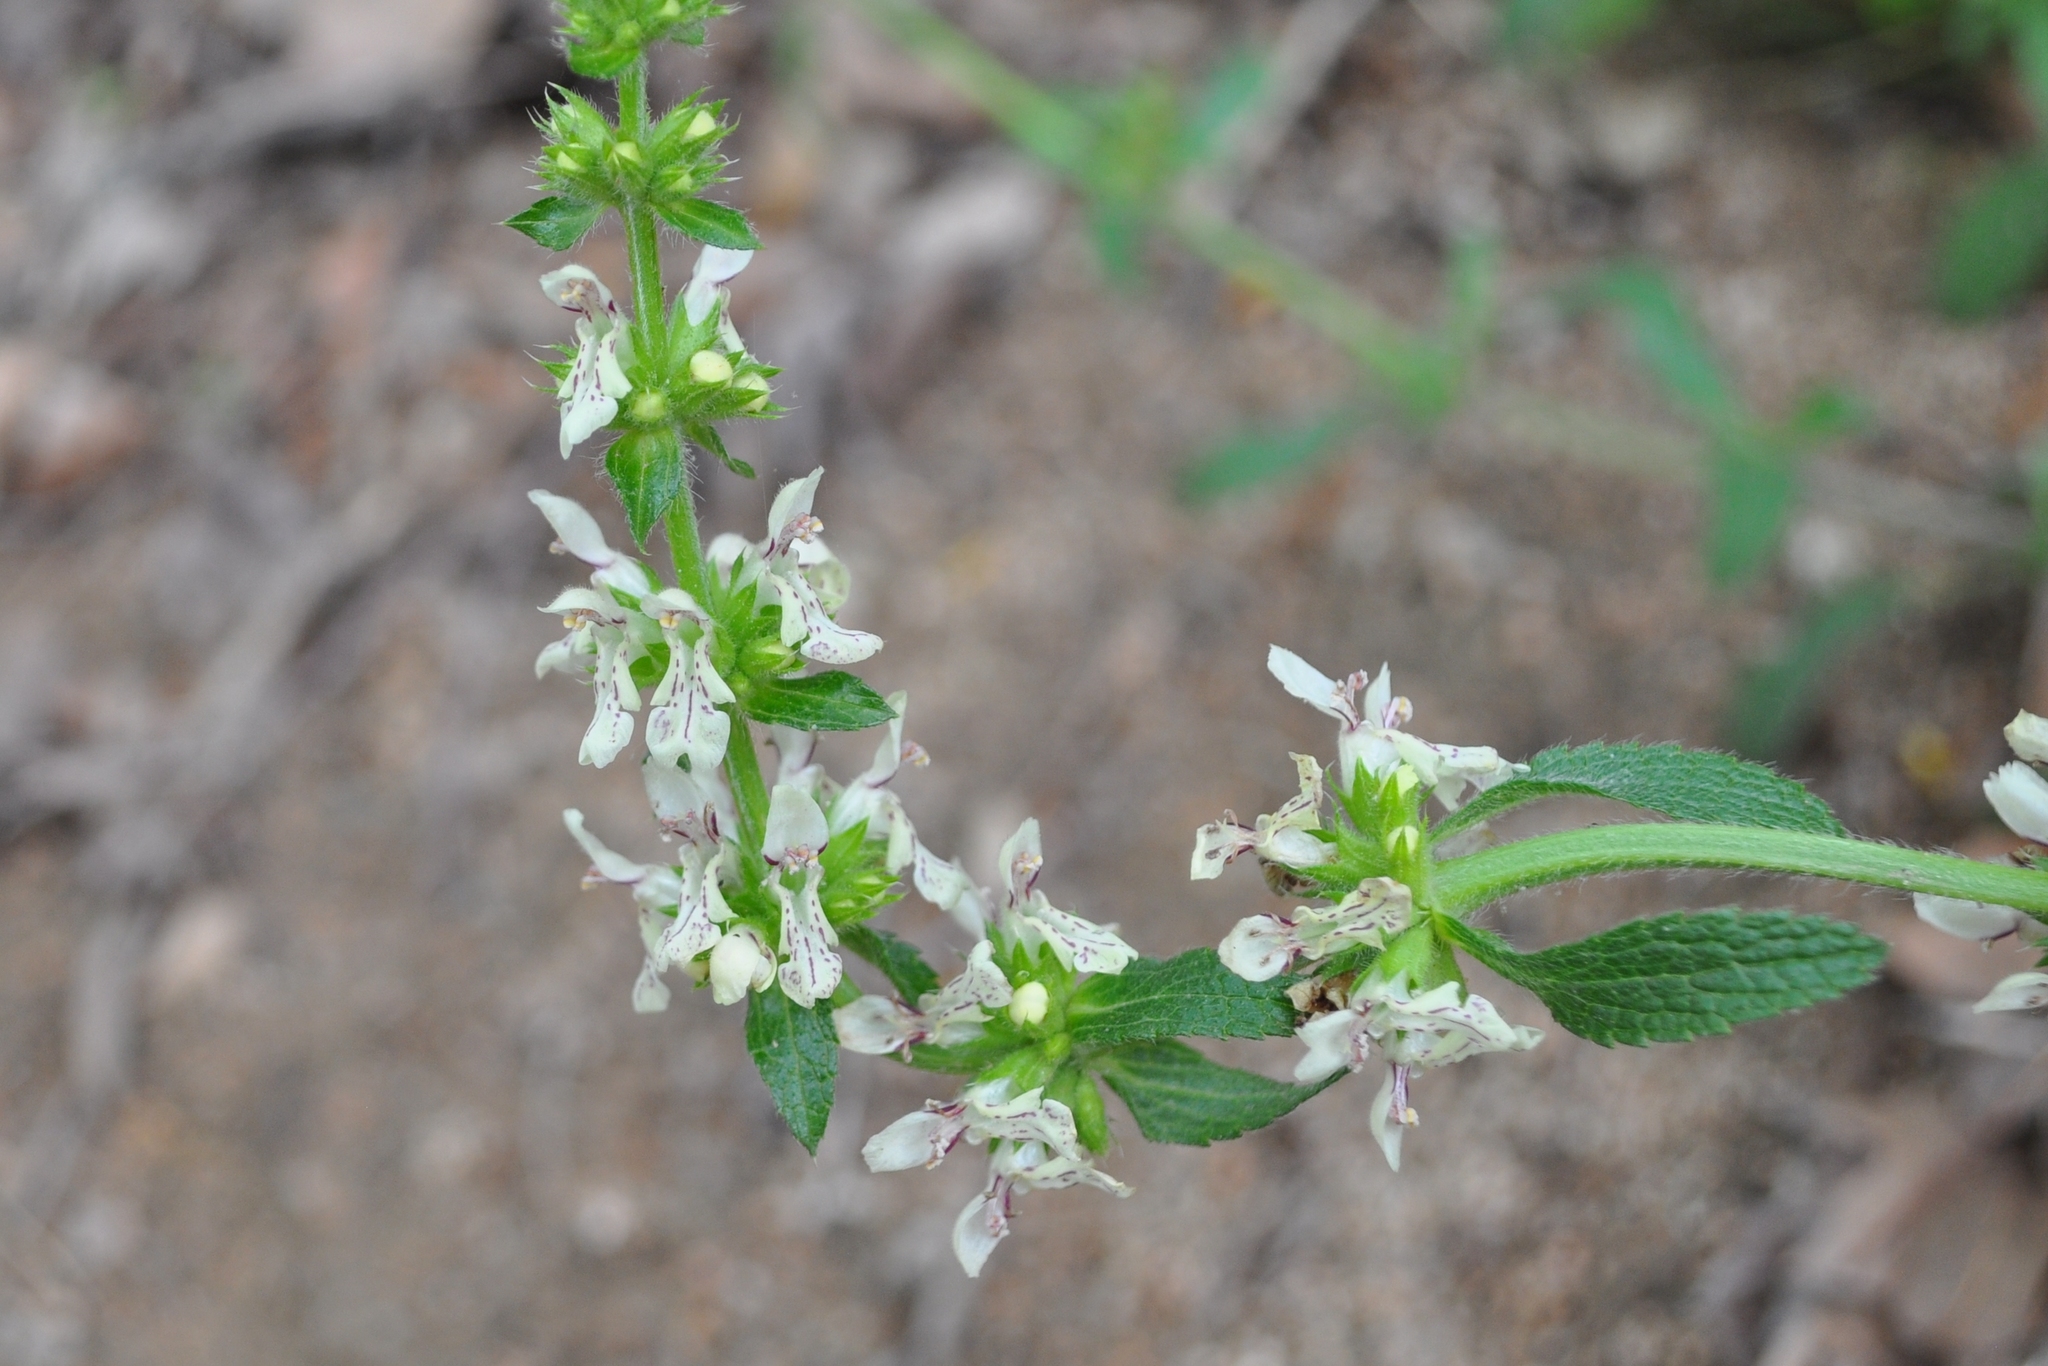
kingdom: Plantae
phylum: Tracheophyta
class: Magnoliopsida
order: Lamiales
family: Lamiaceae
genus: Stachys
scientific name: Stachys recta
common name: Perennial yellow-woundwort
